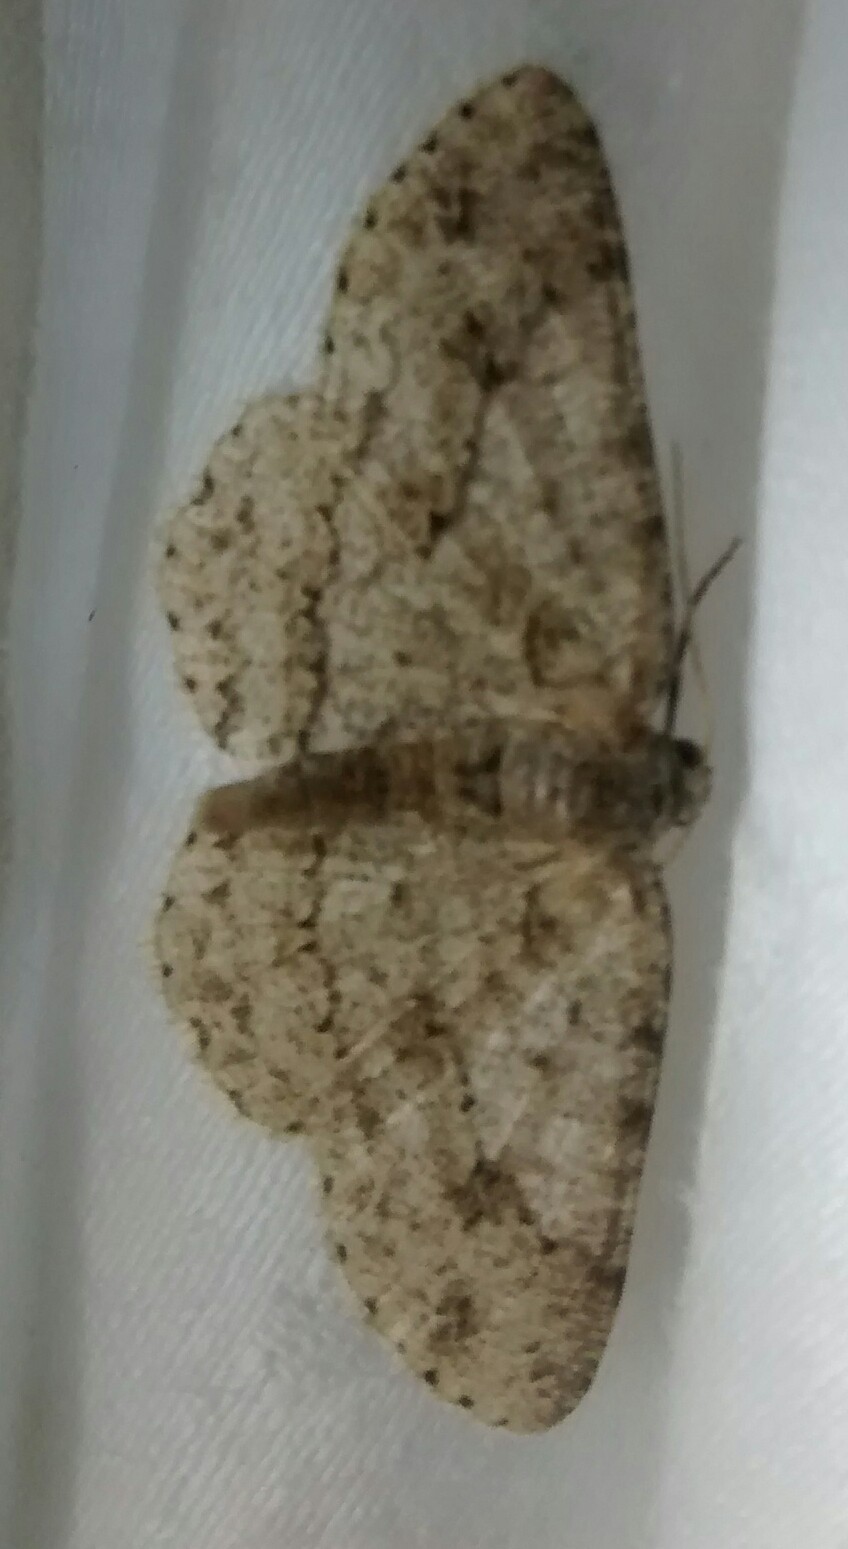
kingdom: Animalia
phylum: Arthropoda
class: Insecta
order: Lepidoptera
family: Geometridae
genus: Ectropis
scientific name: Ectropis crepuscularia
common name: Engrailed
